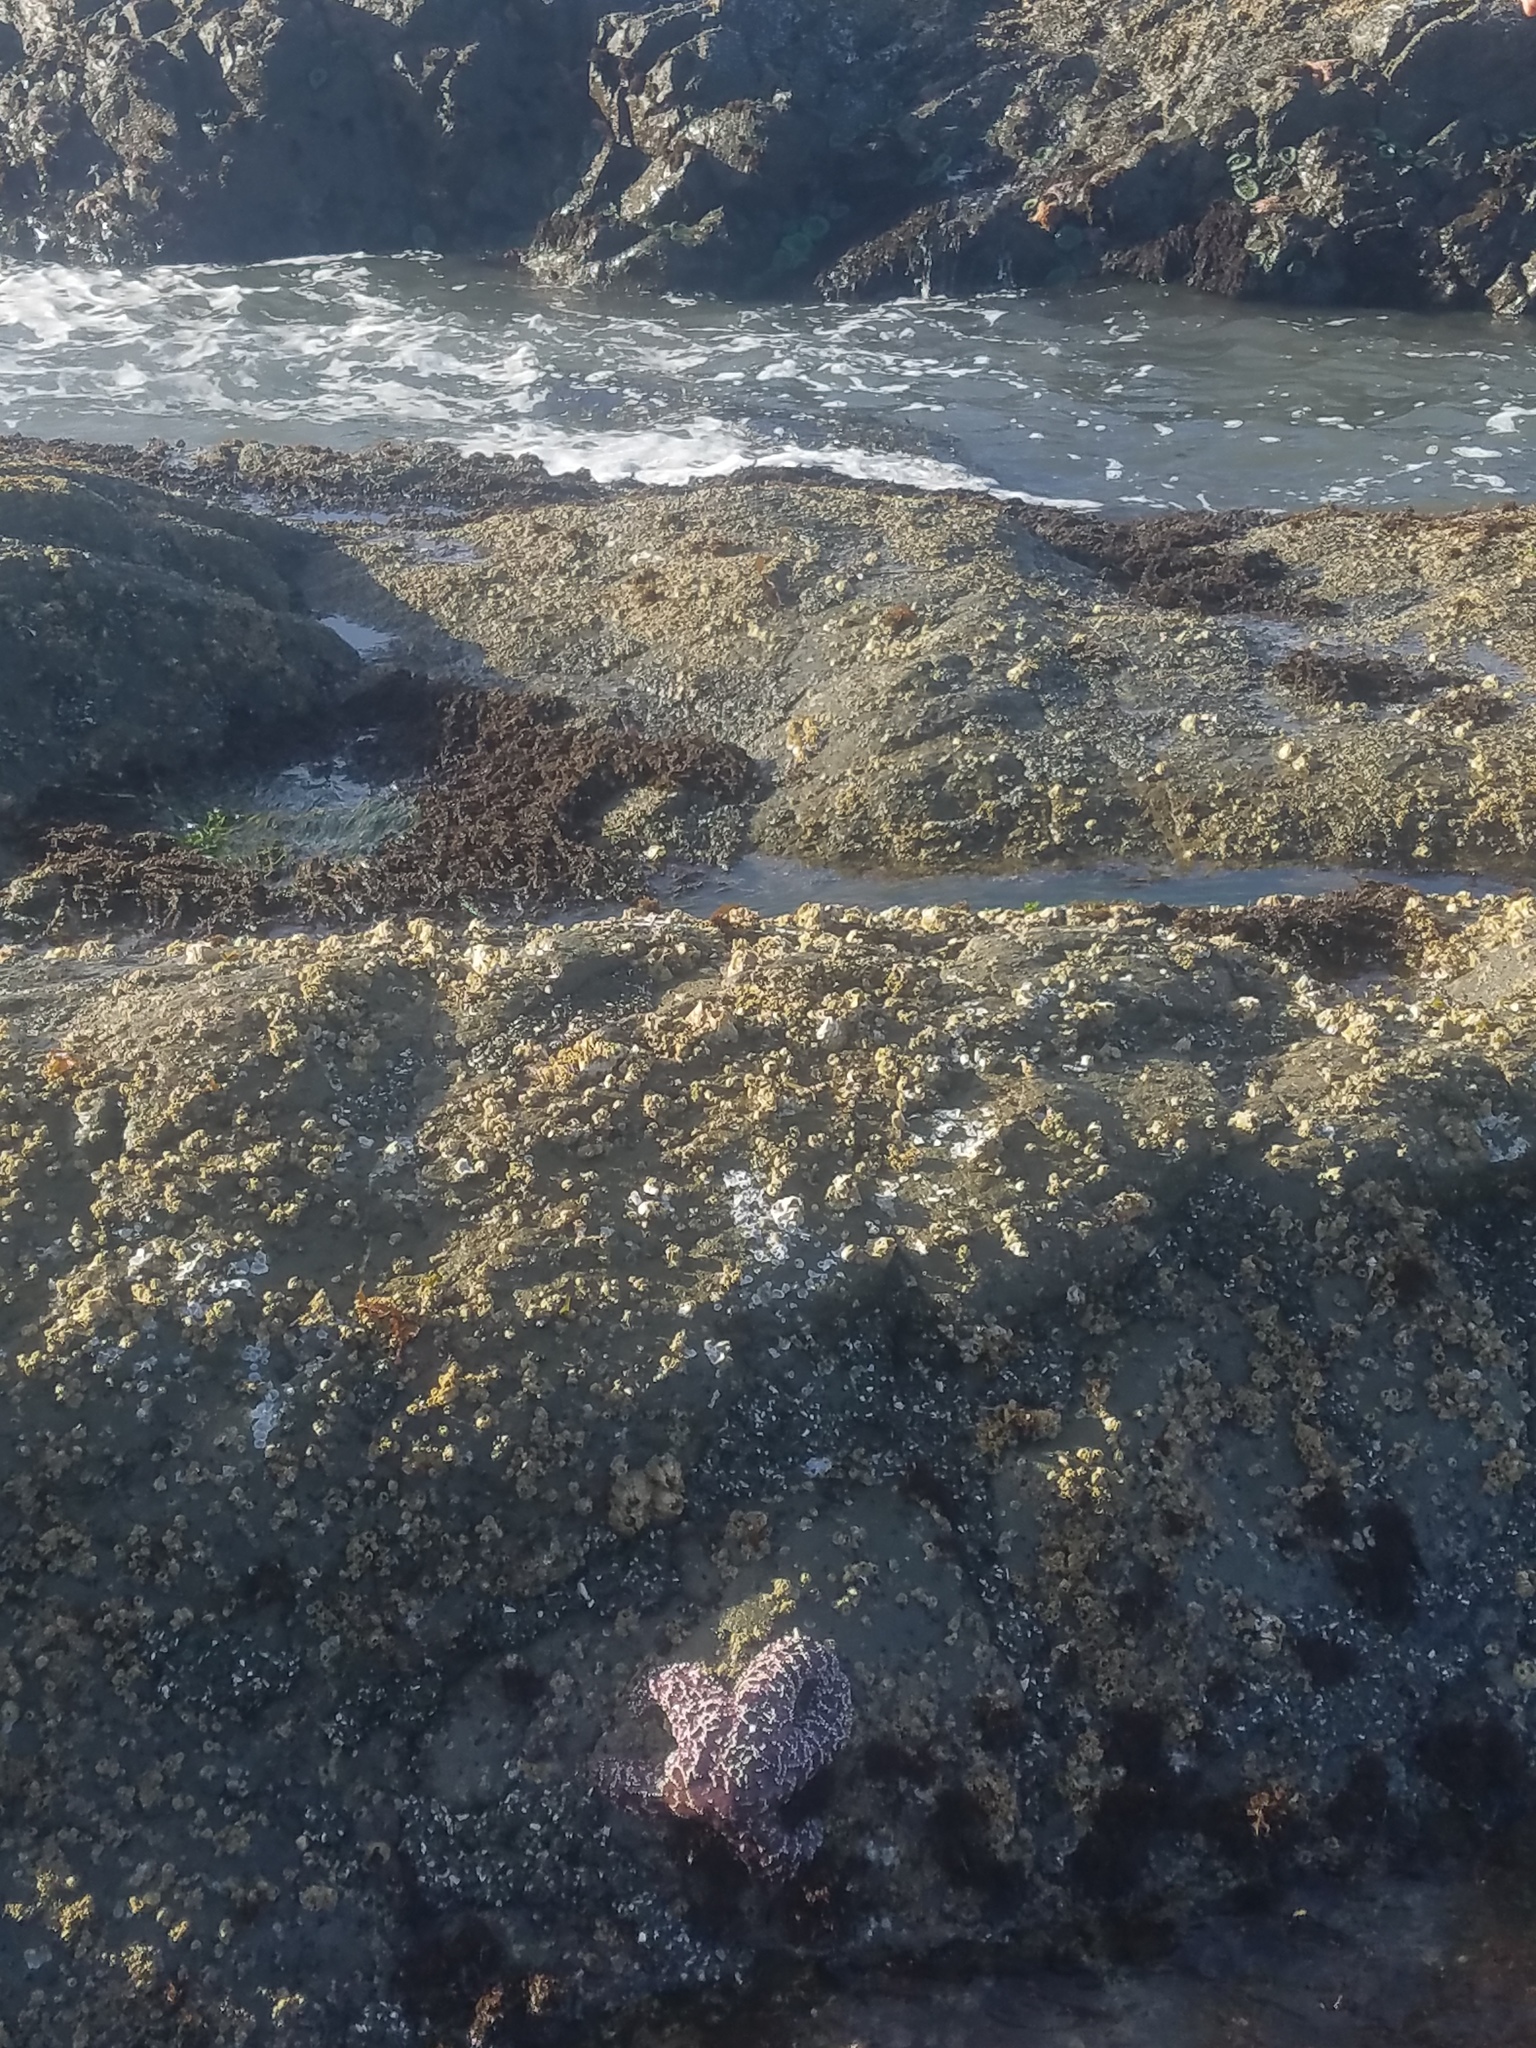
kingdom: Animalia
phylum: Echinodermata
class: Asteroidea
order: Forcipulatida
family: Asteriidae
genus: Pisaster
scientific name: Pisaster ochraceus
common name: Ochre stars
